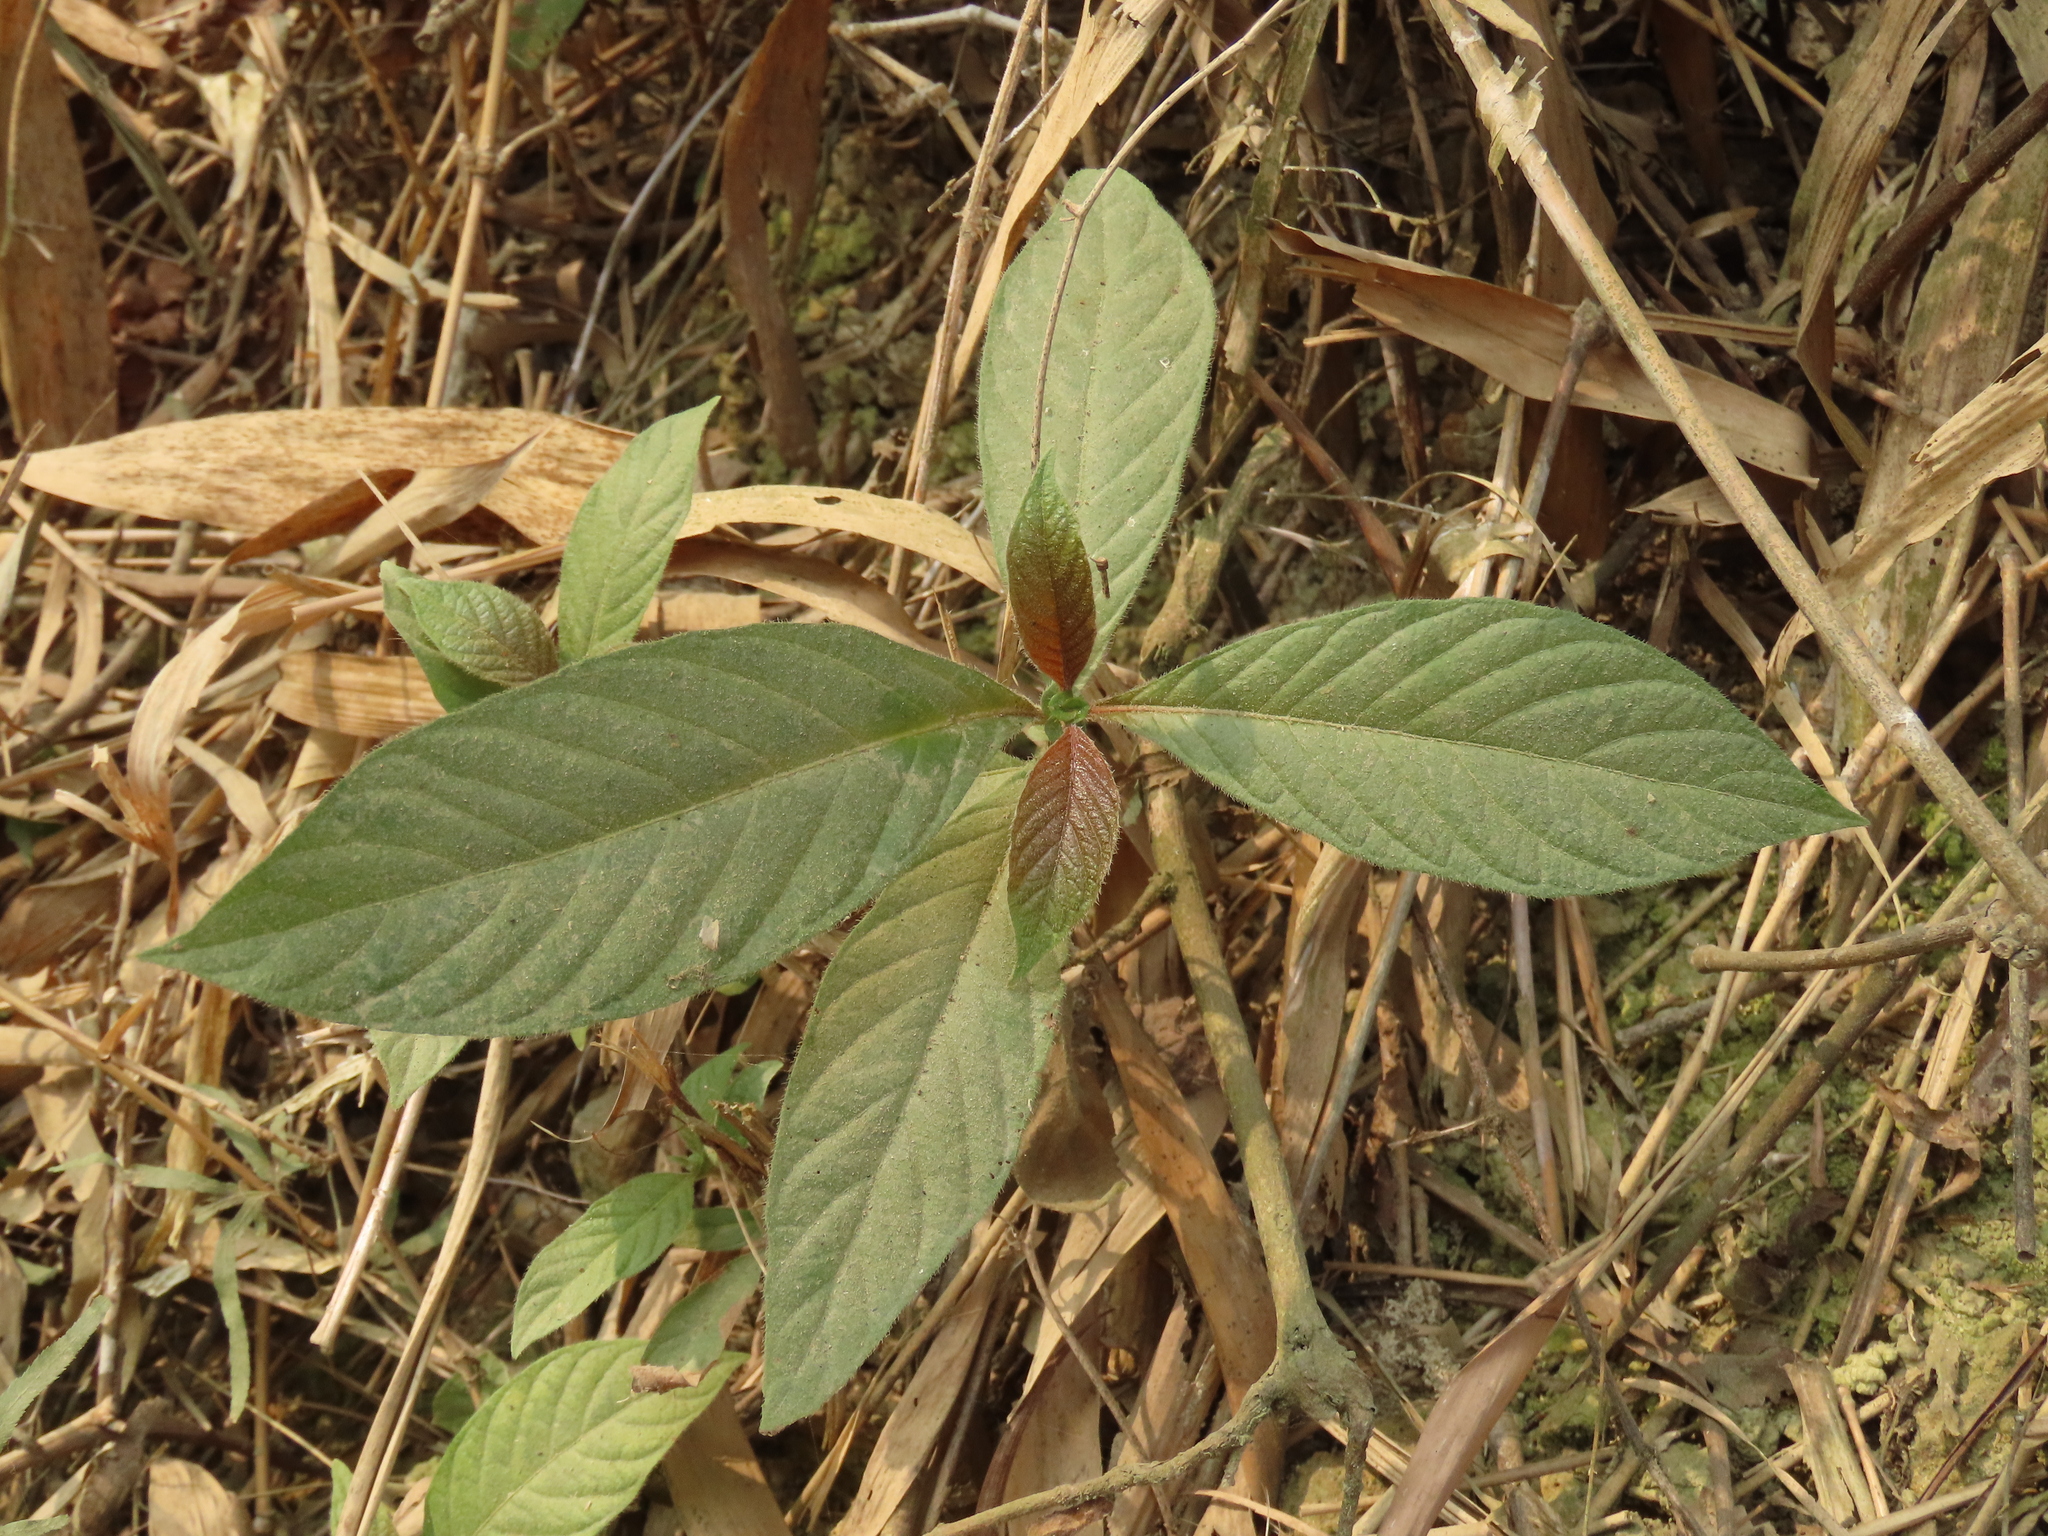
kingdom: Plantae
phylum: Tracheophyta
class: Magnoliopsida
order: Gentianales
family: Rubiaceae
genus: Wendlandia
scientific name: Wendlandia uvariifolia
